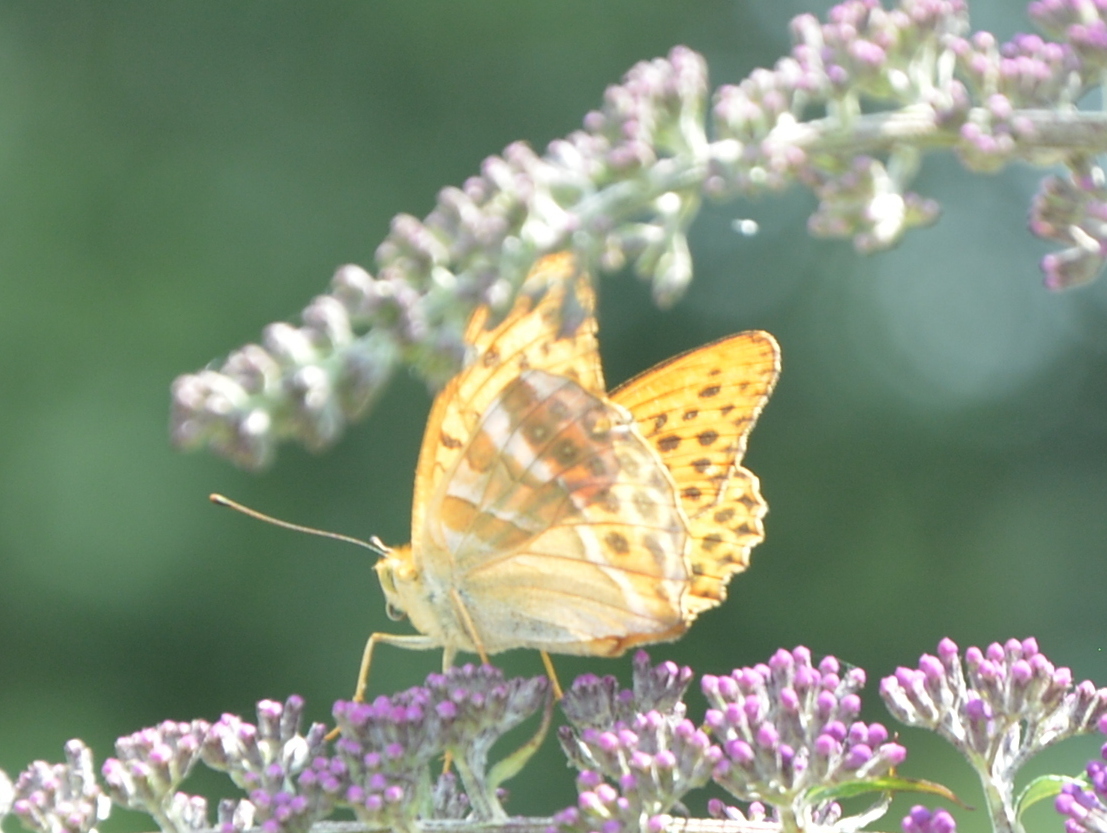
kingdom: Animalia
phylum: Arthropoda
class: Insecta
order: Lepidoptera
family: Nymphalidae
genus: Argynnis
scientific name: Argynnis paphia
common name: Silver-washed fritillary
